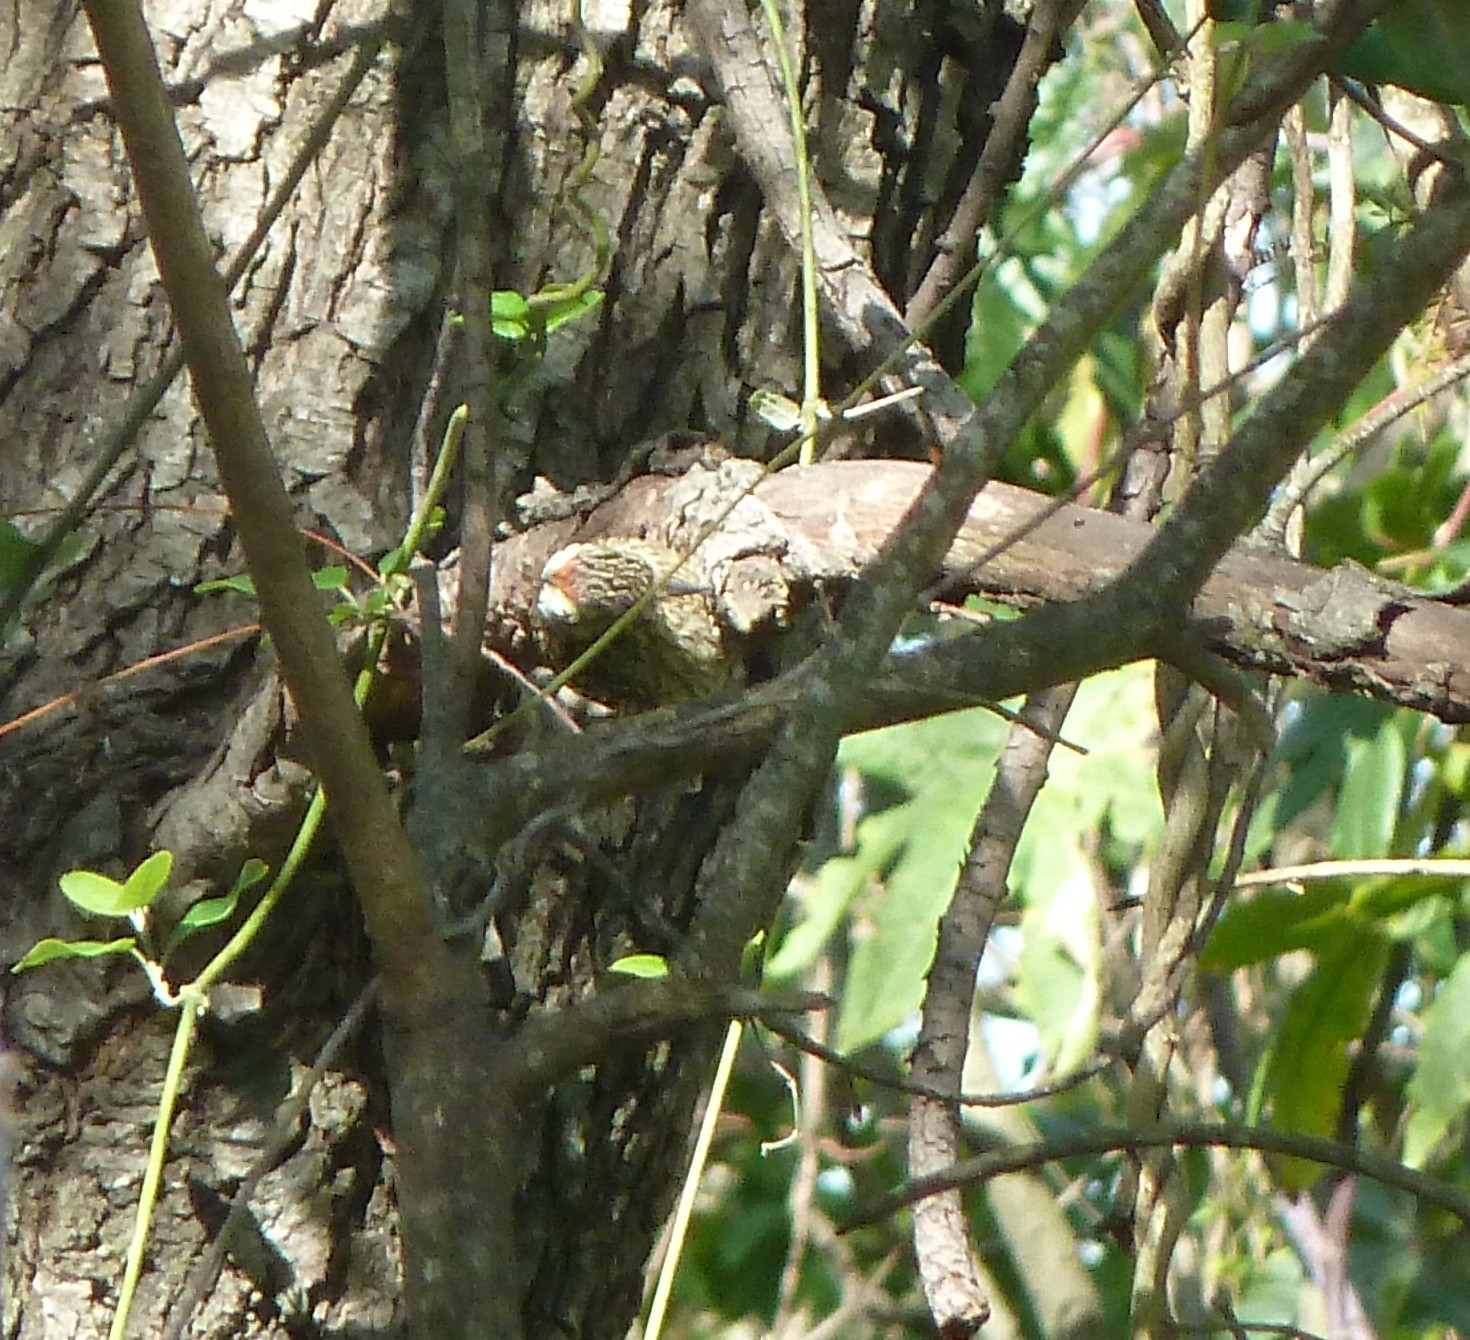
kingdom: Animalia
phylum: Chordata
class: Aves
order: Piciformes
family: Picidae
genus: Veniliornis
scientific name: Veniliornis mixtus
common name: Checkered woodpecker
